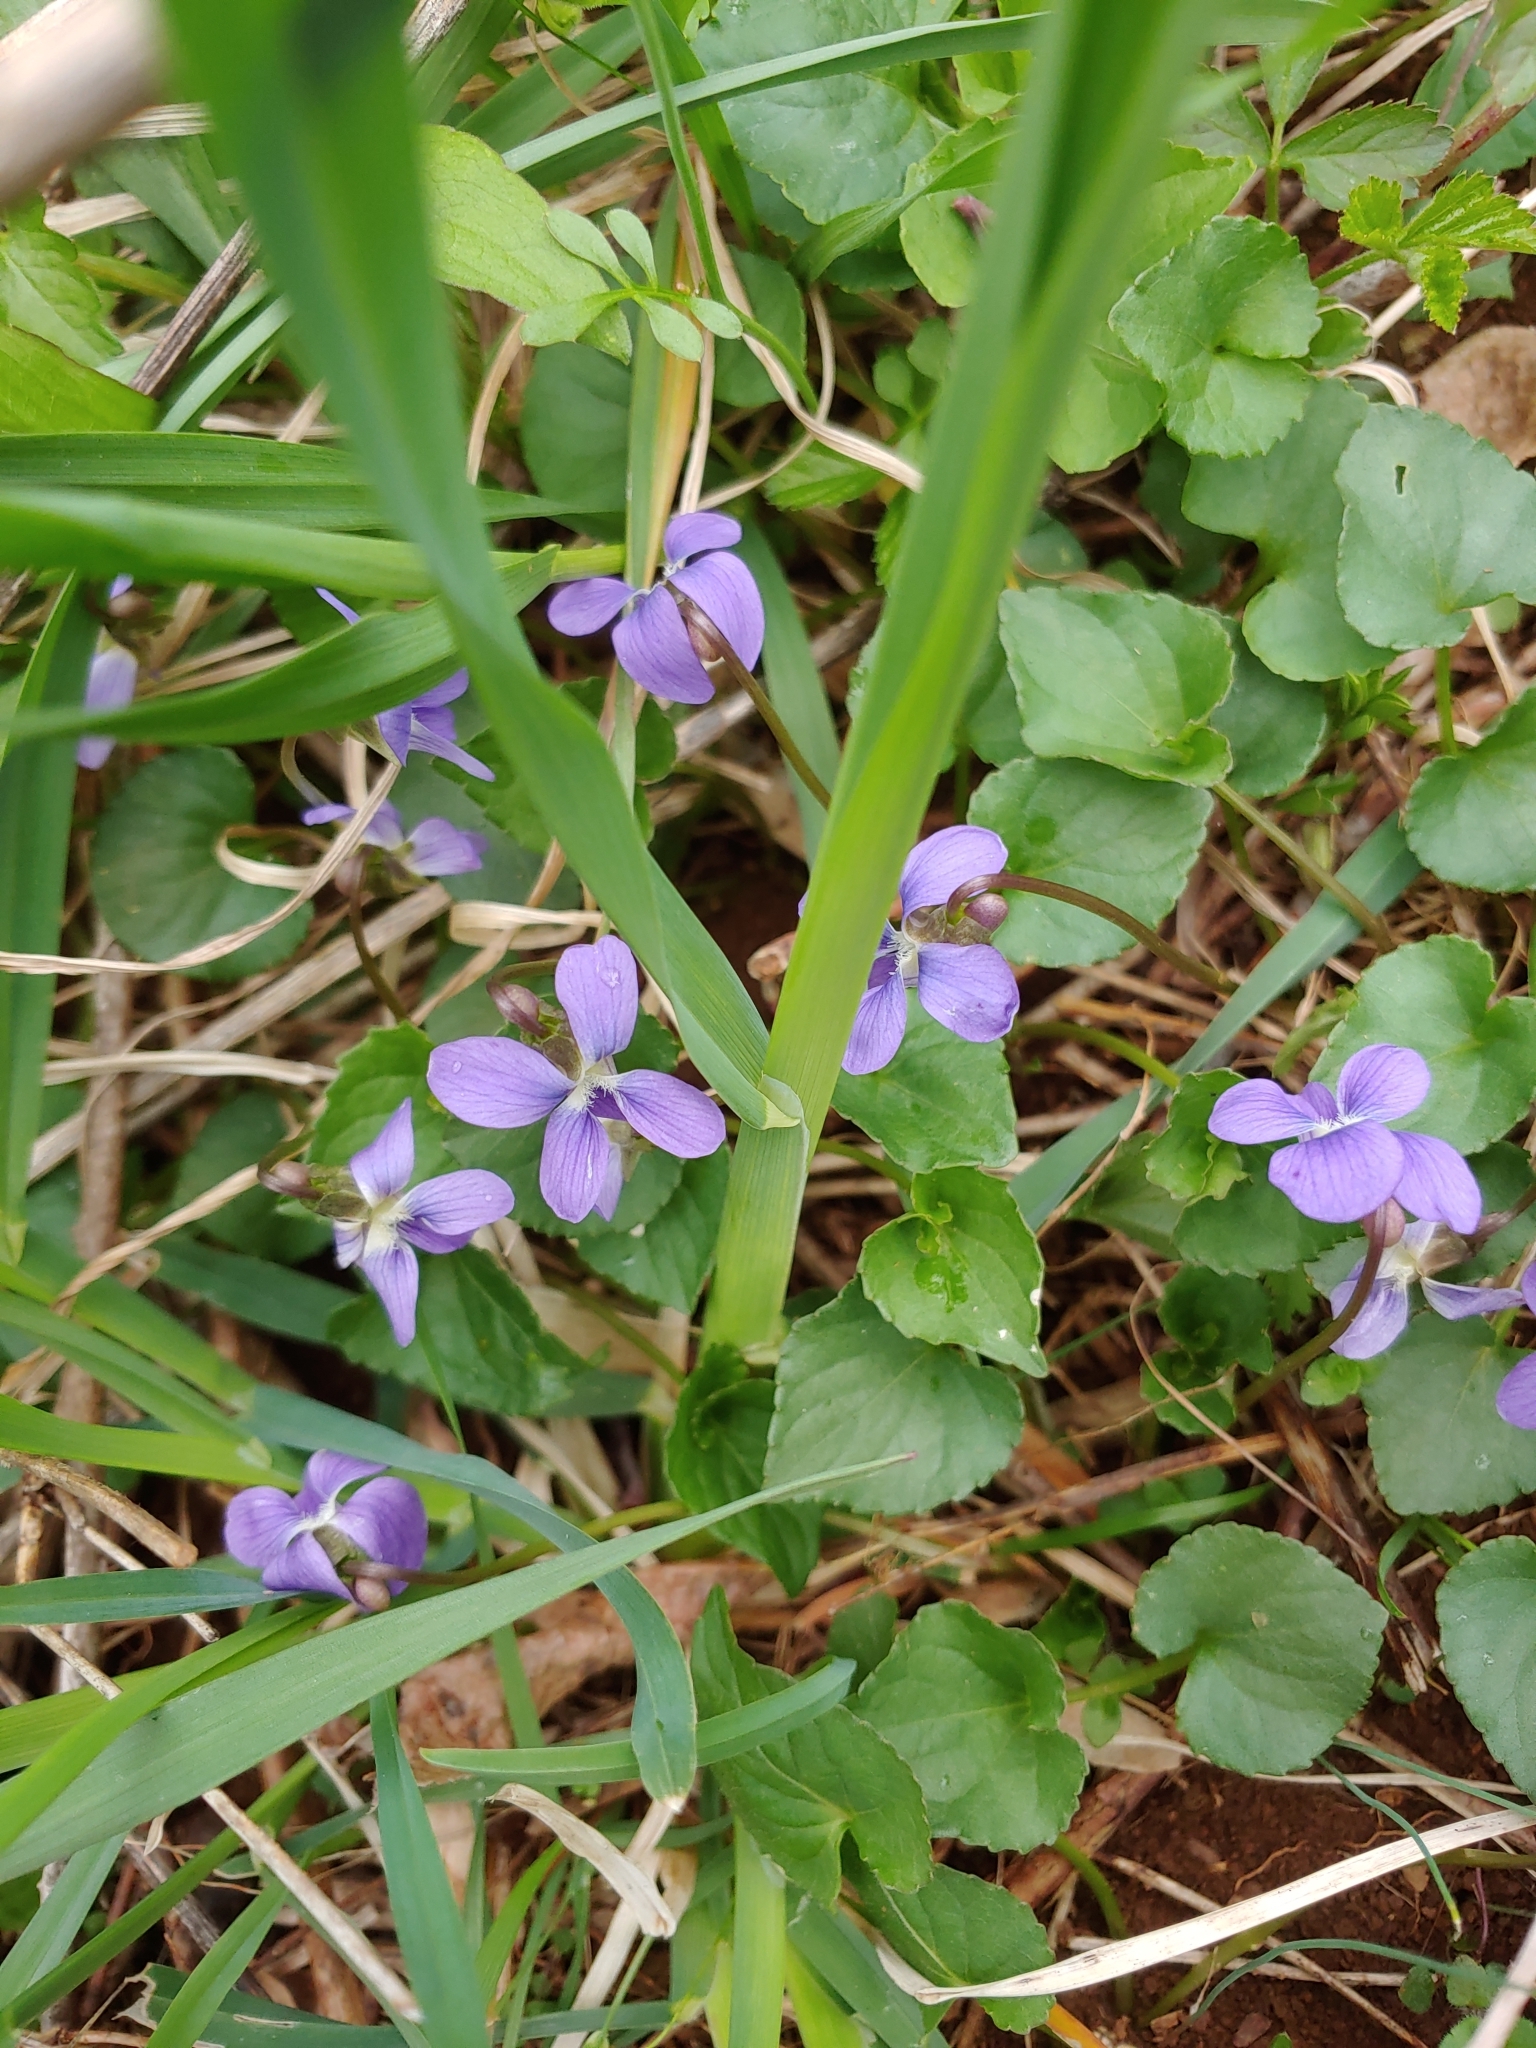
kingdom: Plantae
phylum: Tracheophyta
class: Magnoliopsida
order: Malpighiales
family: Violaceae
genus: Viola
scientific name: Viola sororia
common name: Dooryard violet
